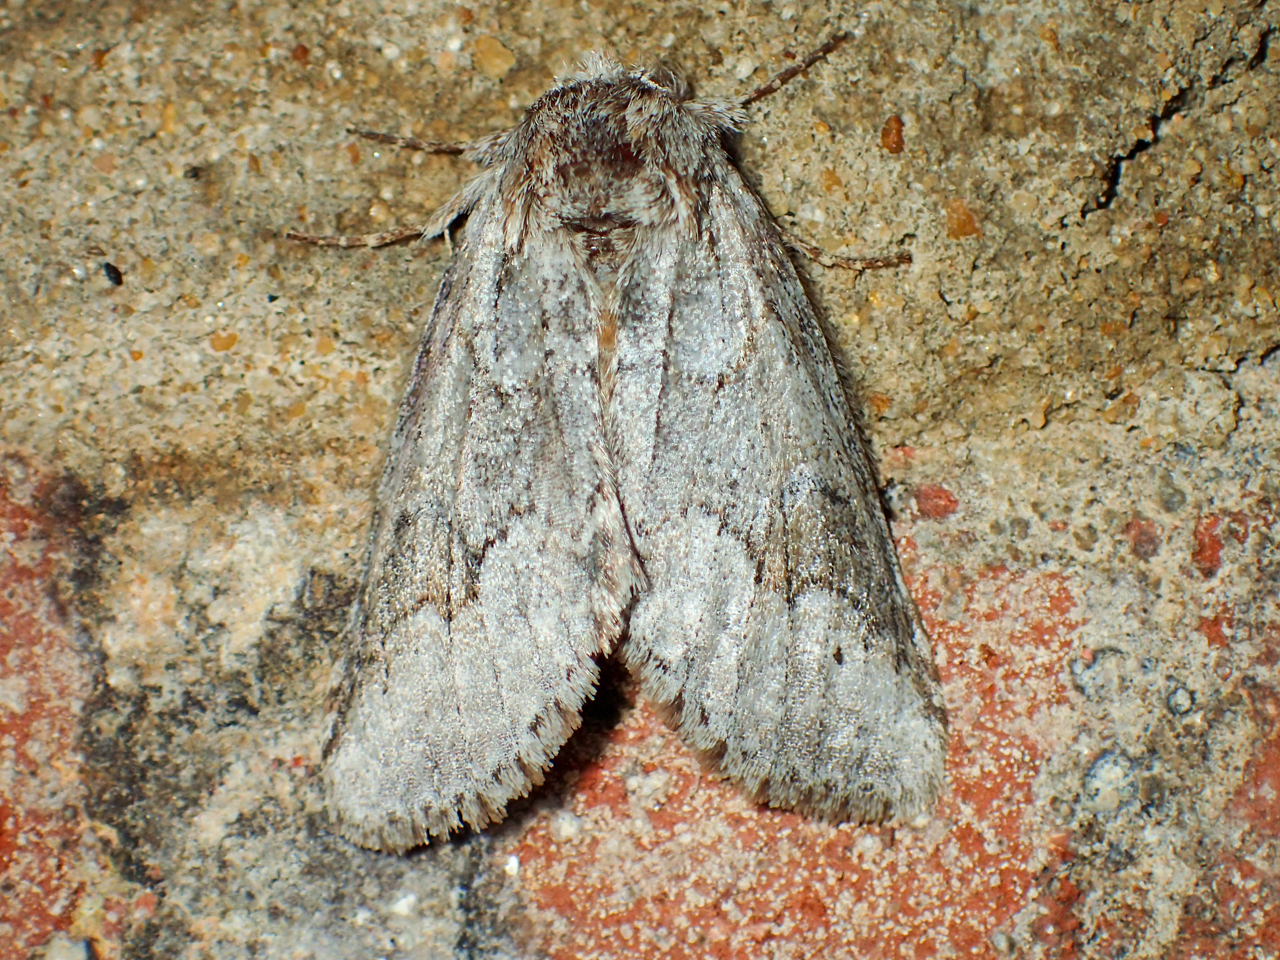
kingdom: Animalia
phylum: Arthropoda
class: Insecta
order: Lepidoptera
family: Notodontidae
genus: Lochmaeus
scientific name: Lochmaeus bilineata
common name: Double-lined prominent
